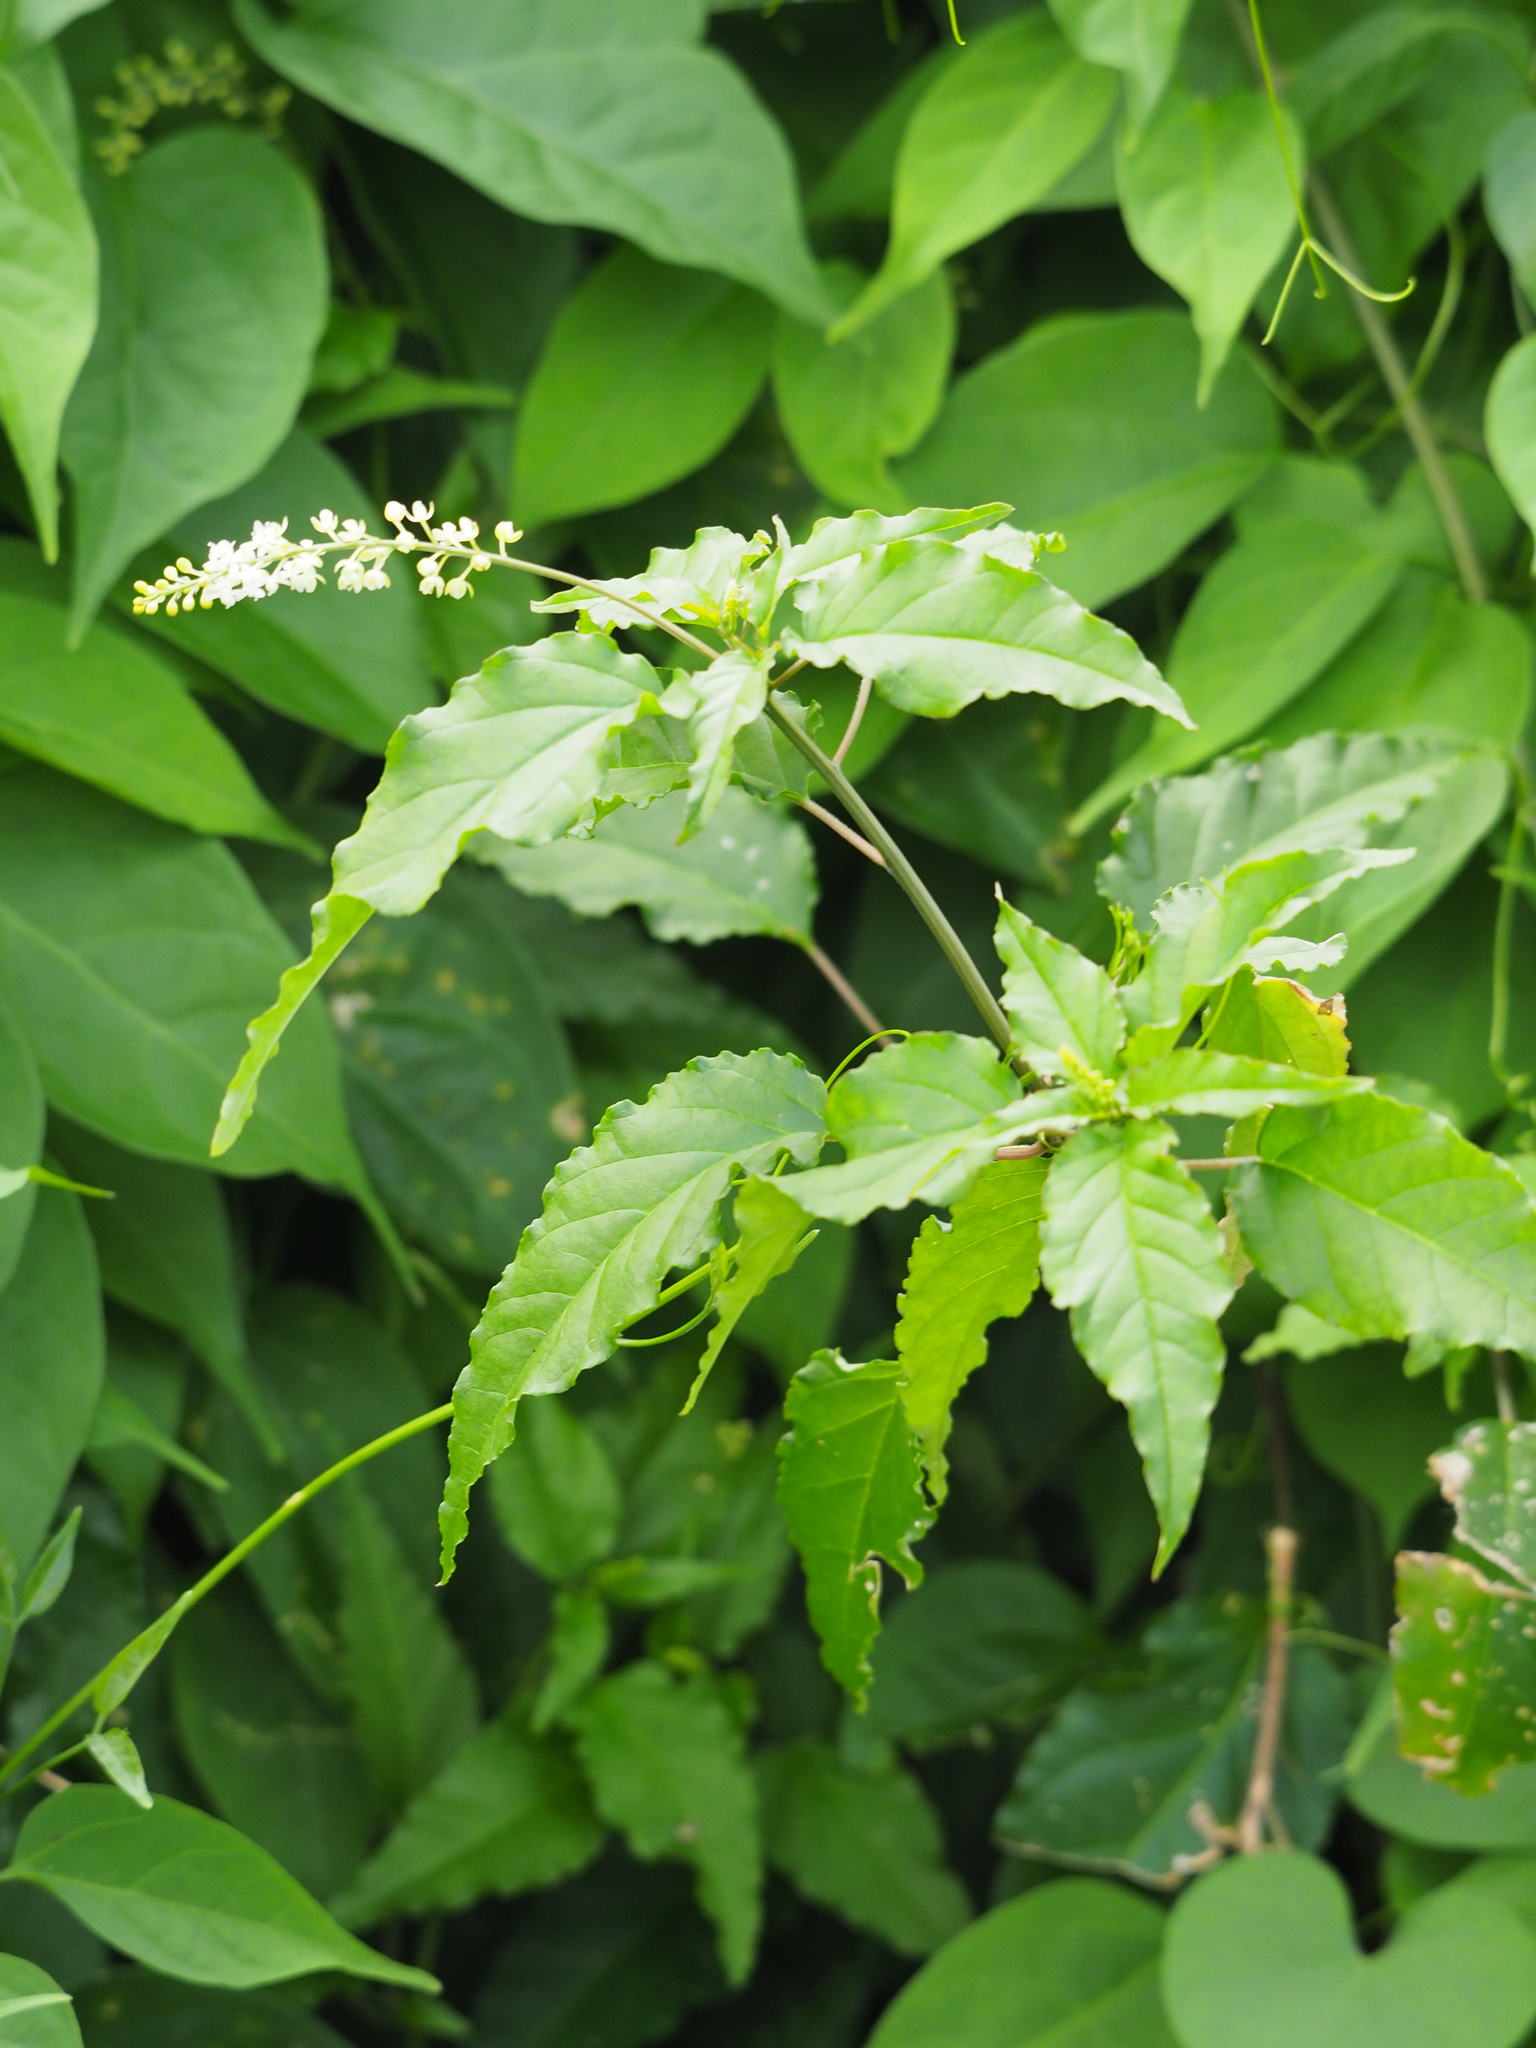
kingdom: Plantae
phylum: Tracheophyta
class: Magnoliopsida
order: Caryophyllales
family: Phytolaccaceae
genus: Rivina
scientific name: Rivina humilis
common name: Rougeplant
